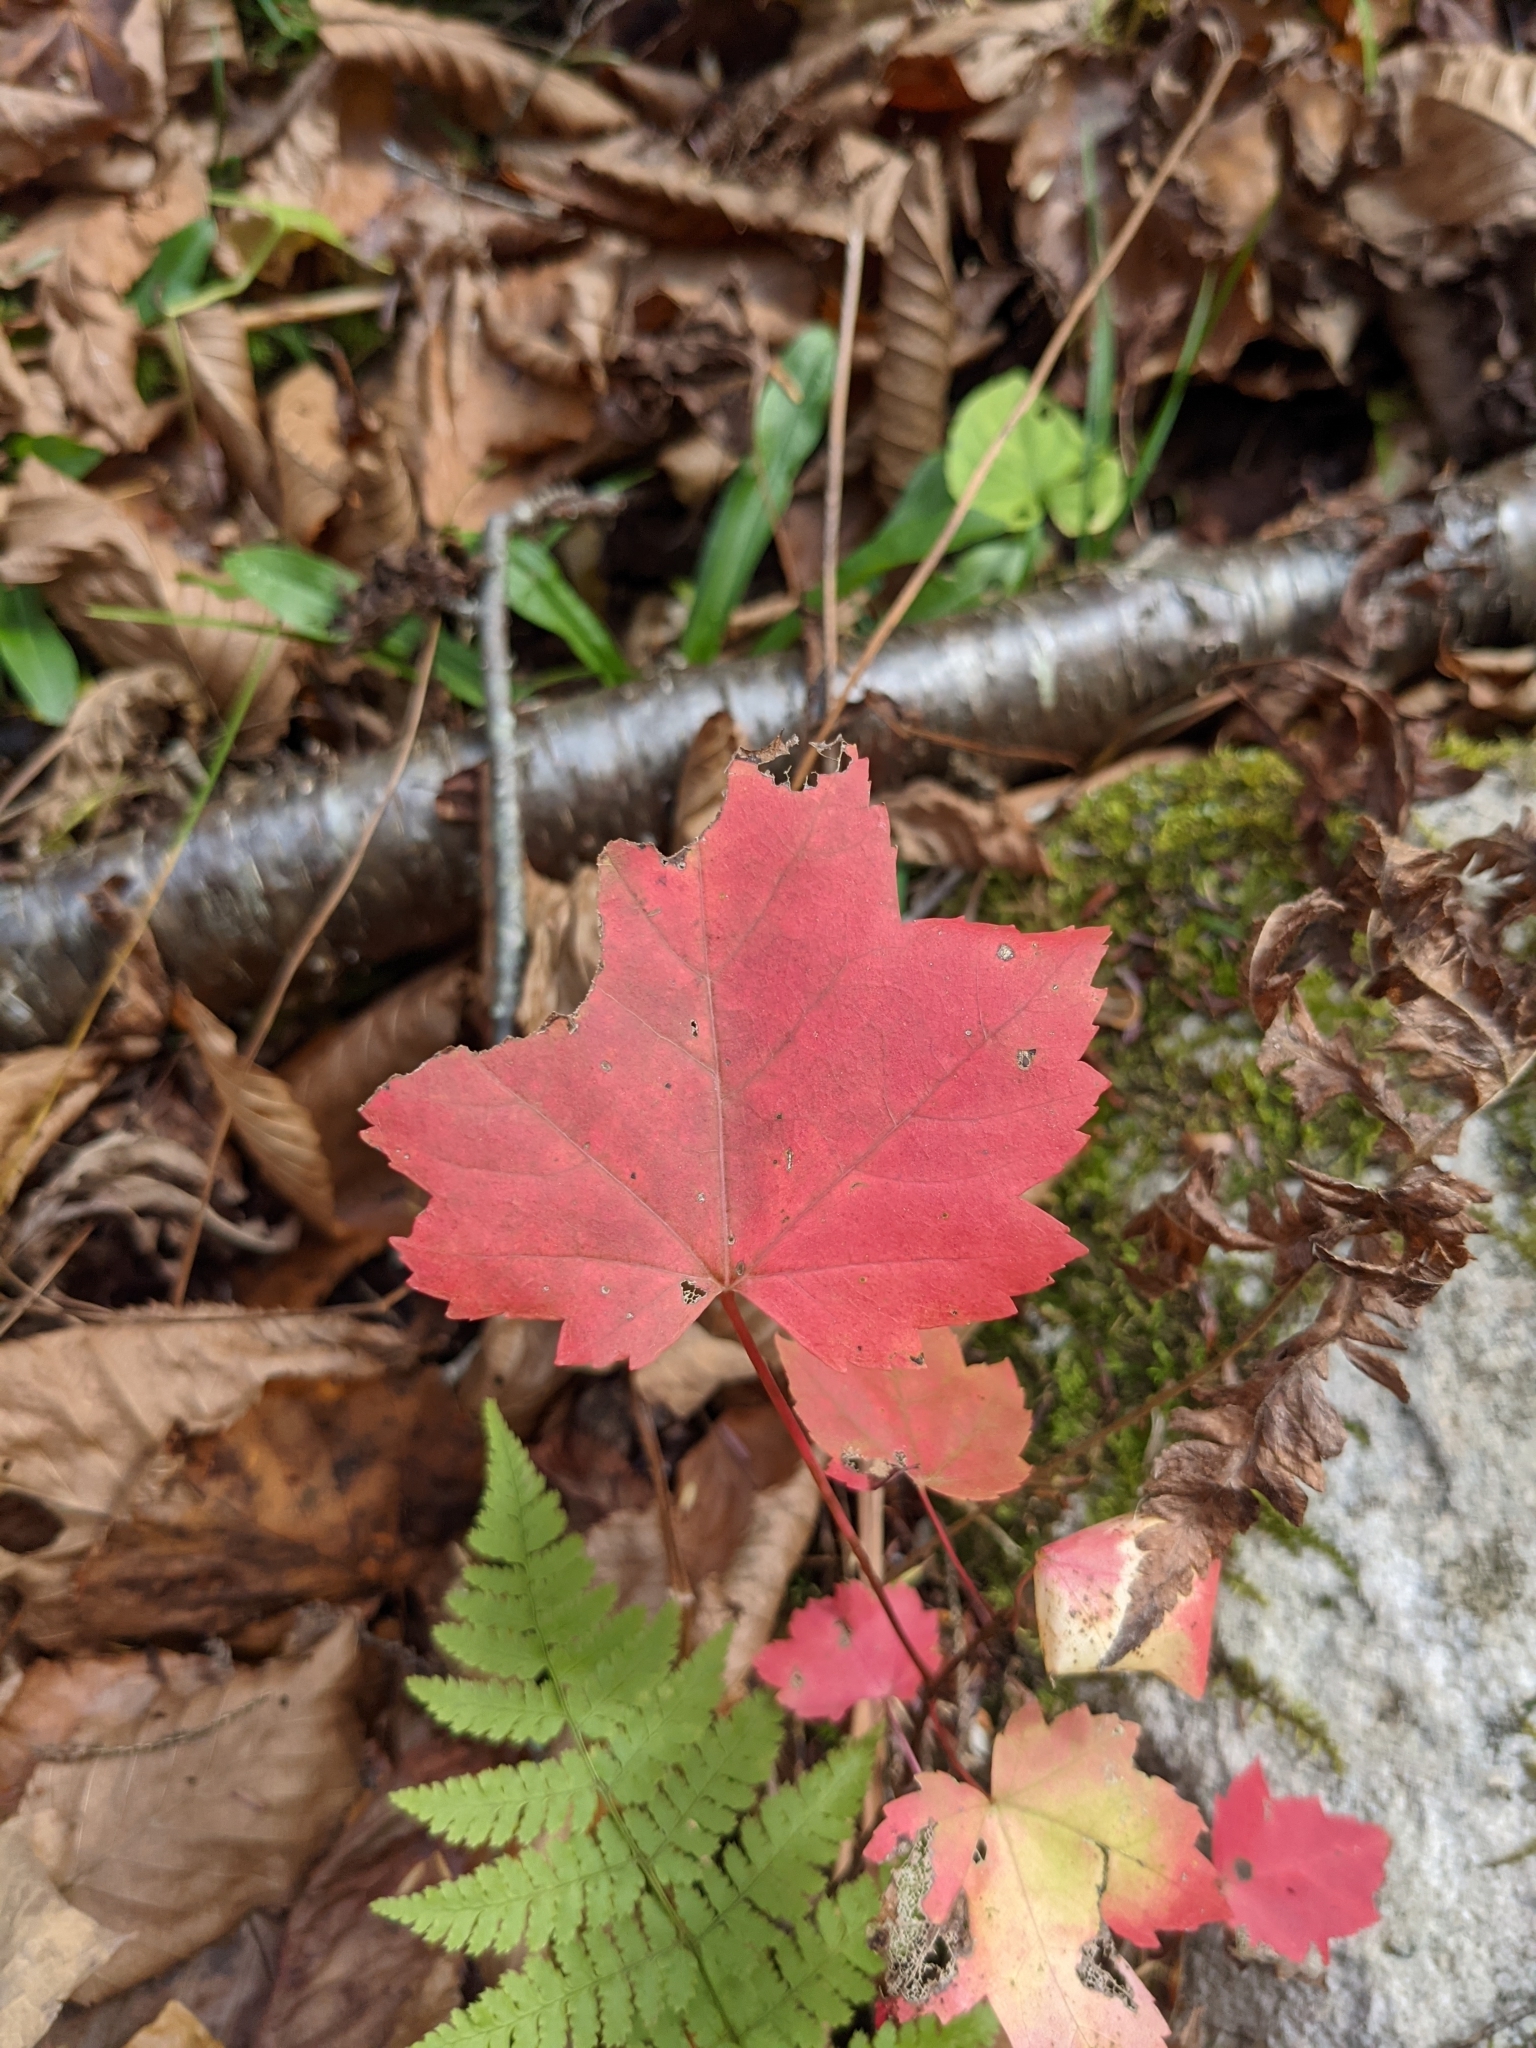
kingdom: Plantae
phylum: Tracheophyta
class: Magnoliopsida
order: Sapindales
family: Sapindaceae
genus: Acer
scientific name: Acer rubrum
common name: Red maple
